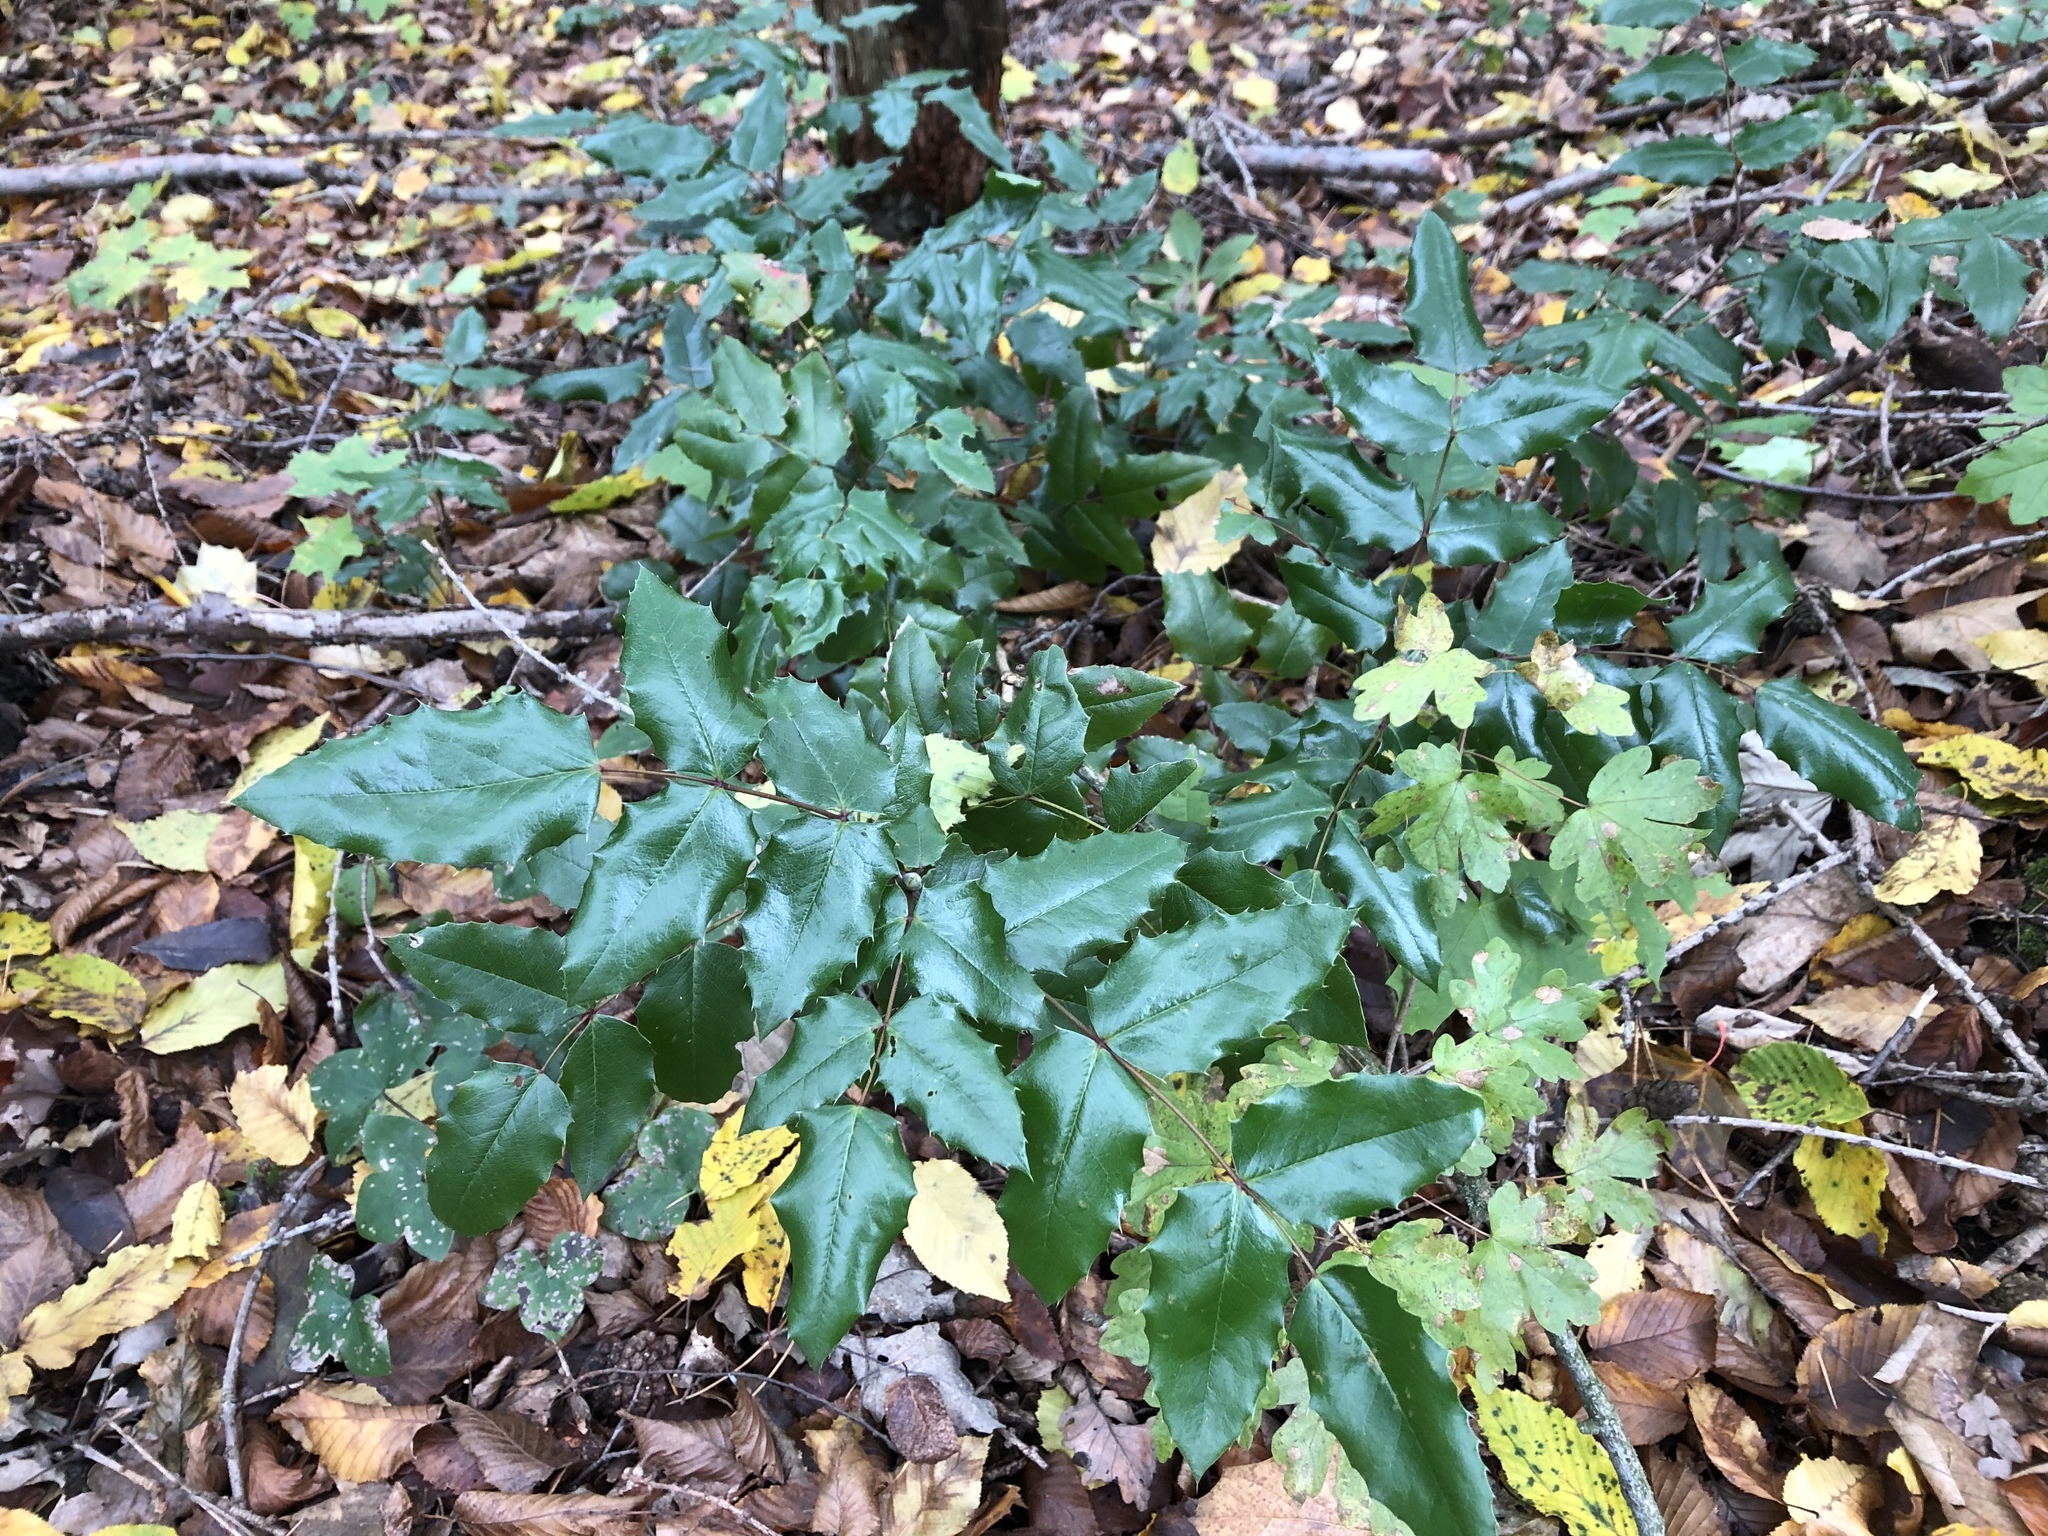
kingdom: Plantae
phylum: Tracheophyta
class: Magnoliopsida
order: Ranunculales
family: Berberidaceae
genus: Mahonia
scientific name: Mahonia aquifolium
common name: Oregon-grape
